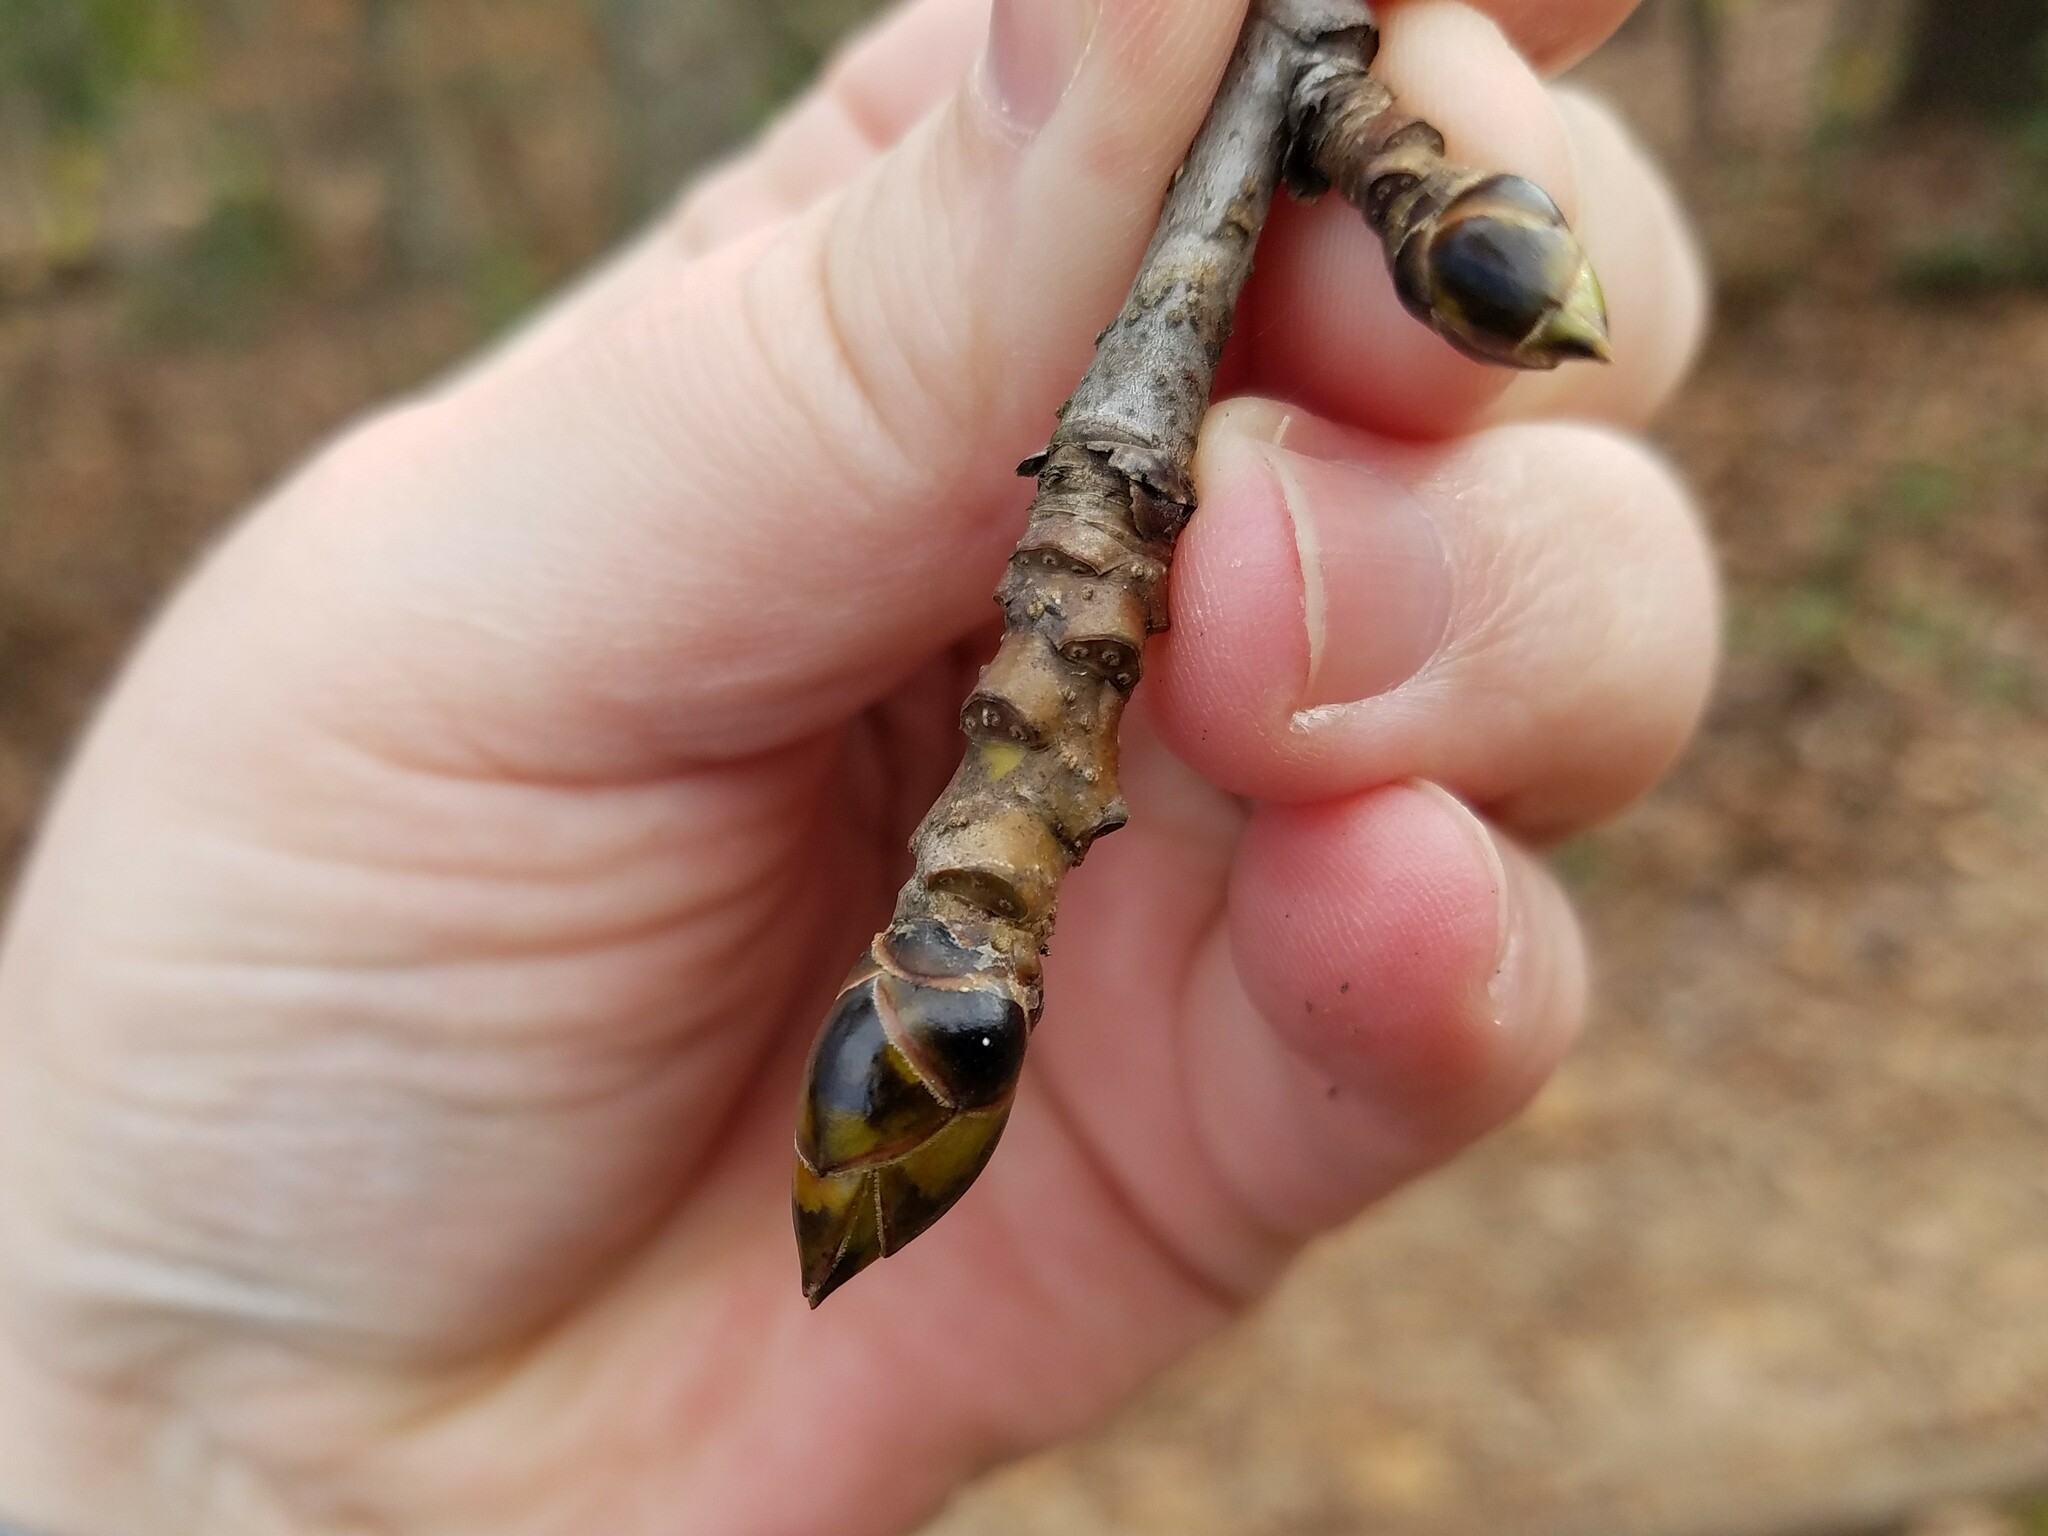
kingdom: Plantae
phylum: Tracheophyta
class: Magnoliopsida
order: Saxifragales
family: Altingiaceae
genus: Liquidambar
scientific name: Liquidambar styraciflua
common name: Sweet gum
